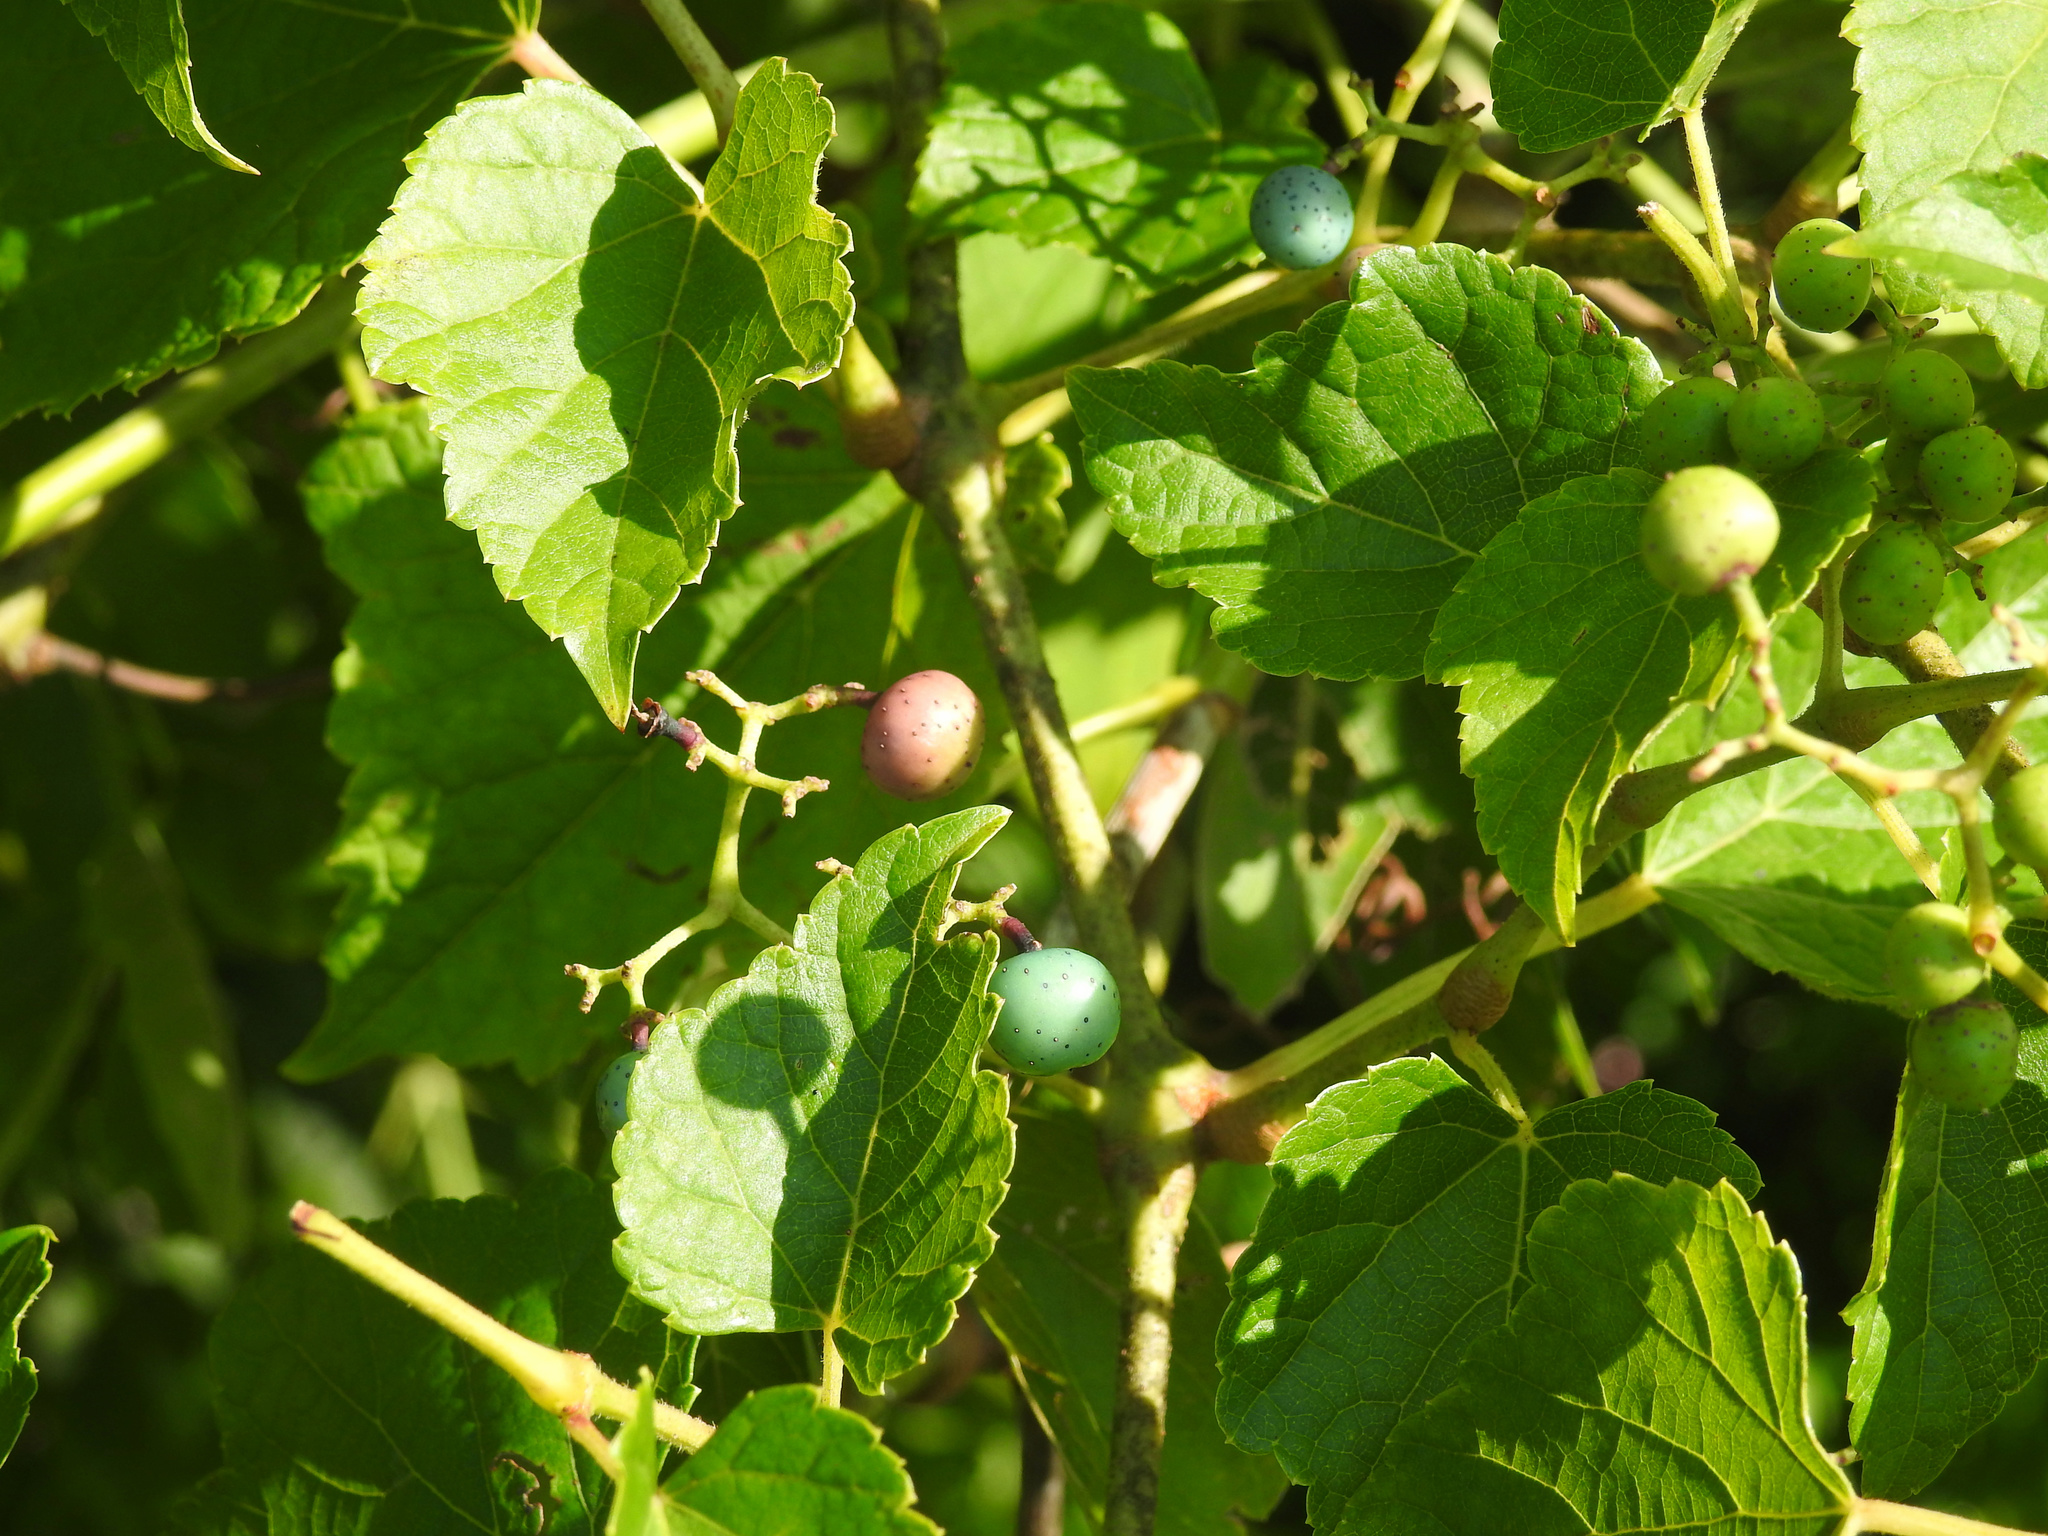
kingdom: Plantae
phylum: Tracheophyta
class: Magnoliopsida
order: Vitales
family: Vitaceae
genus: Ampelopsis
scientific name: Ampelopsis glandulosa
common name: Amur peppervine
